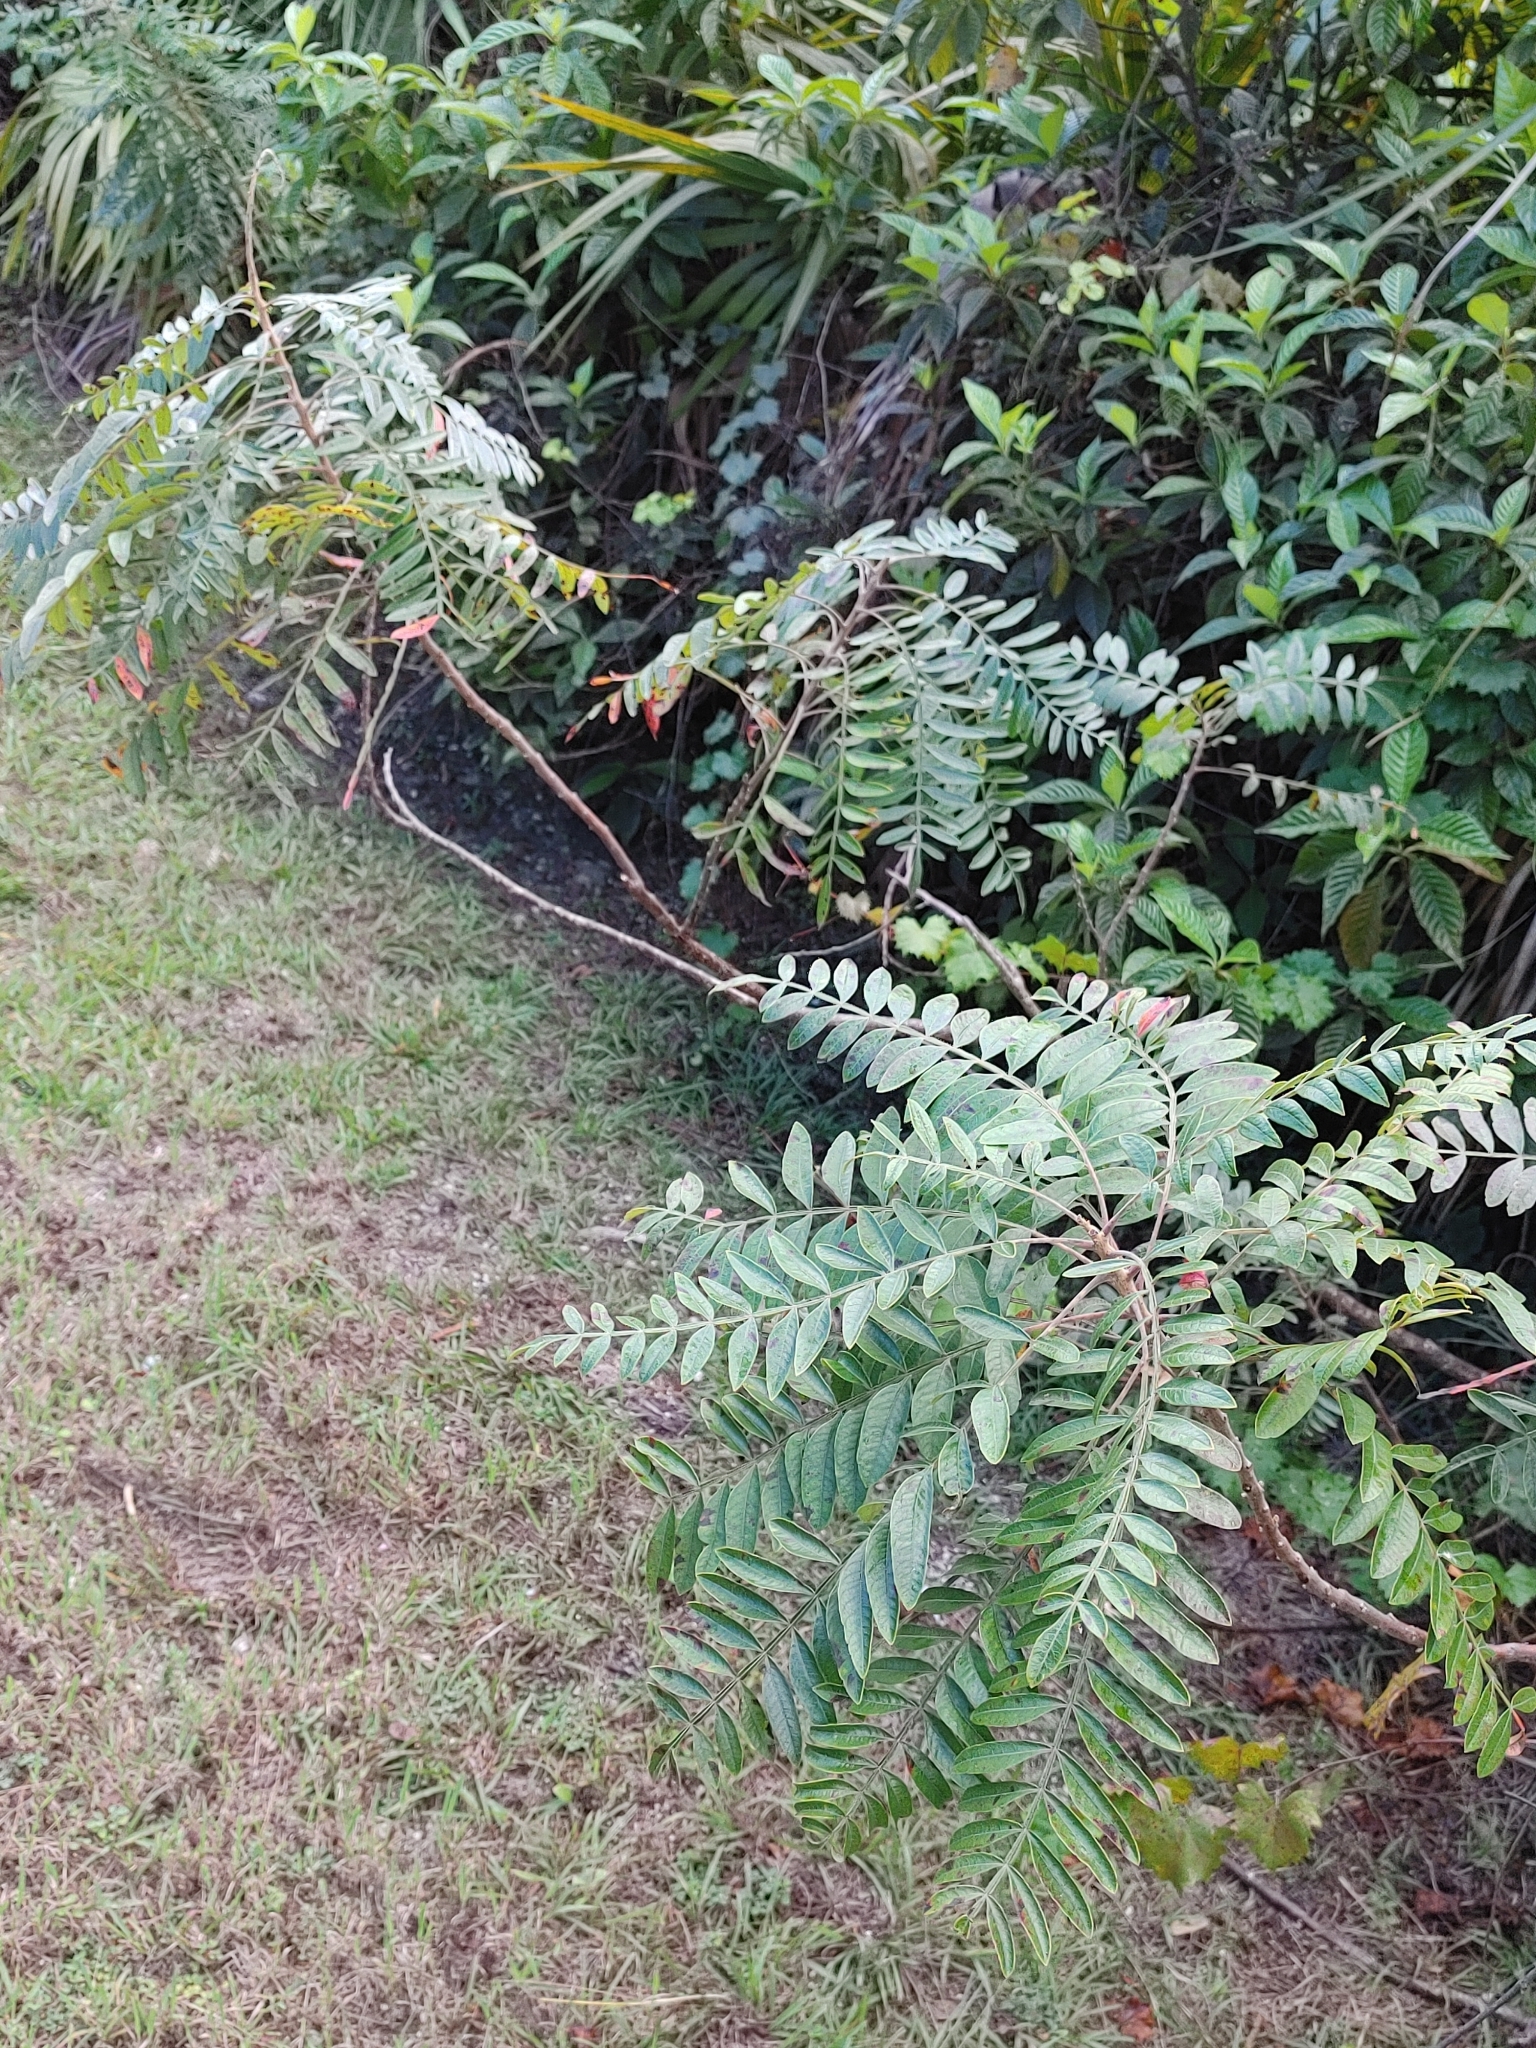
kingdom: Plantae
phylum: Tracheophyta
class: Magnoliopsida
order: Sapindales
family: Anacardiaceae
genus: Rhus
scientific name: Rhus copallina
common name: Shining sumac
